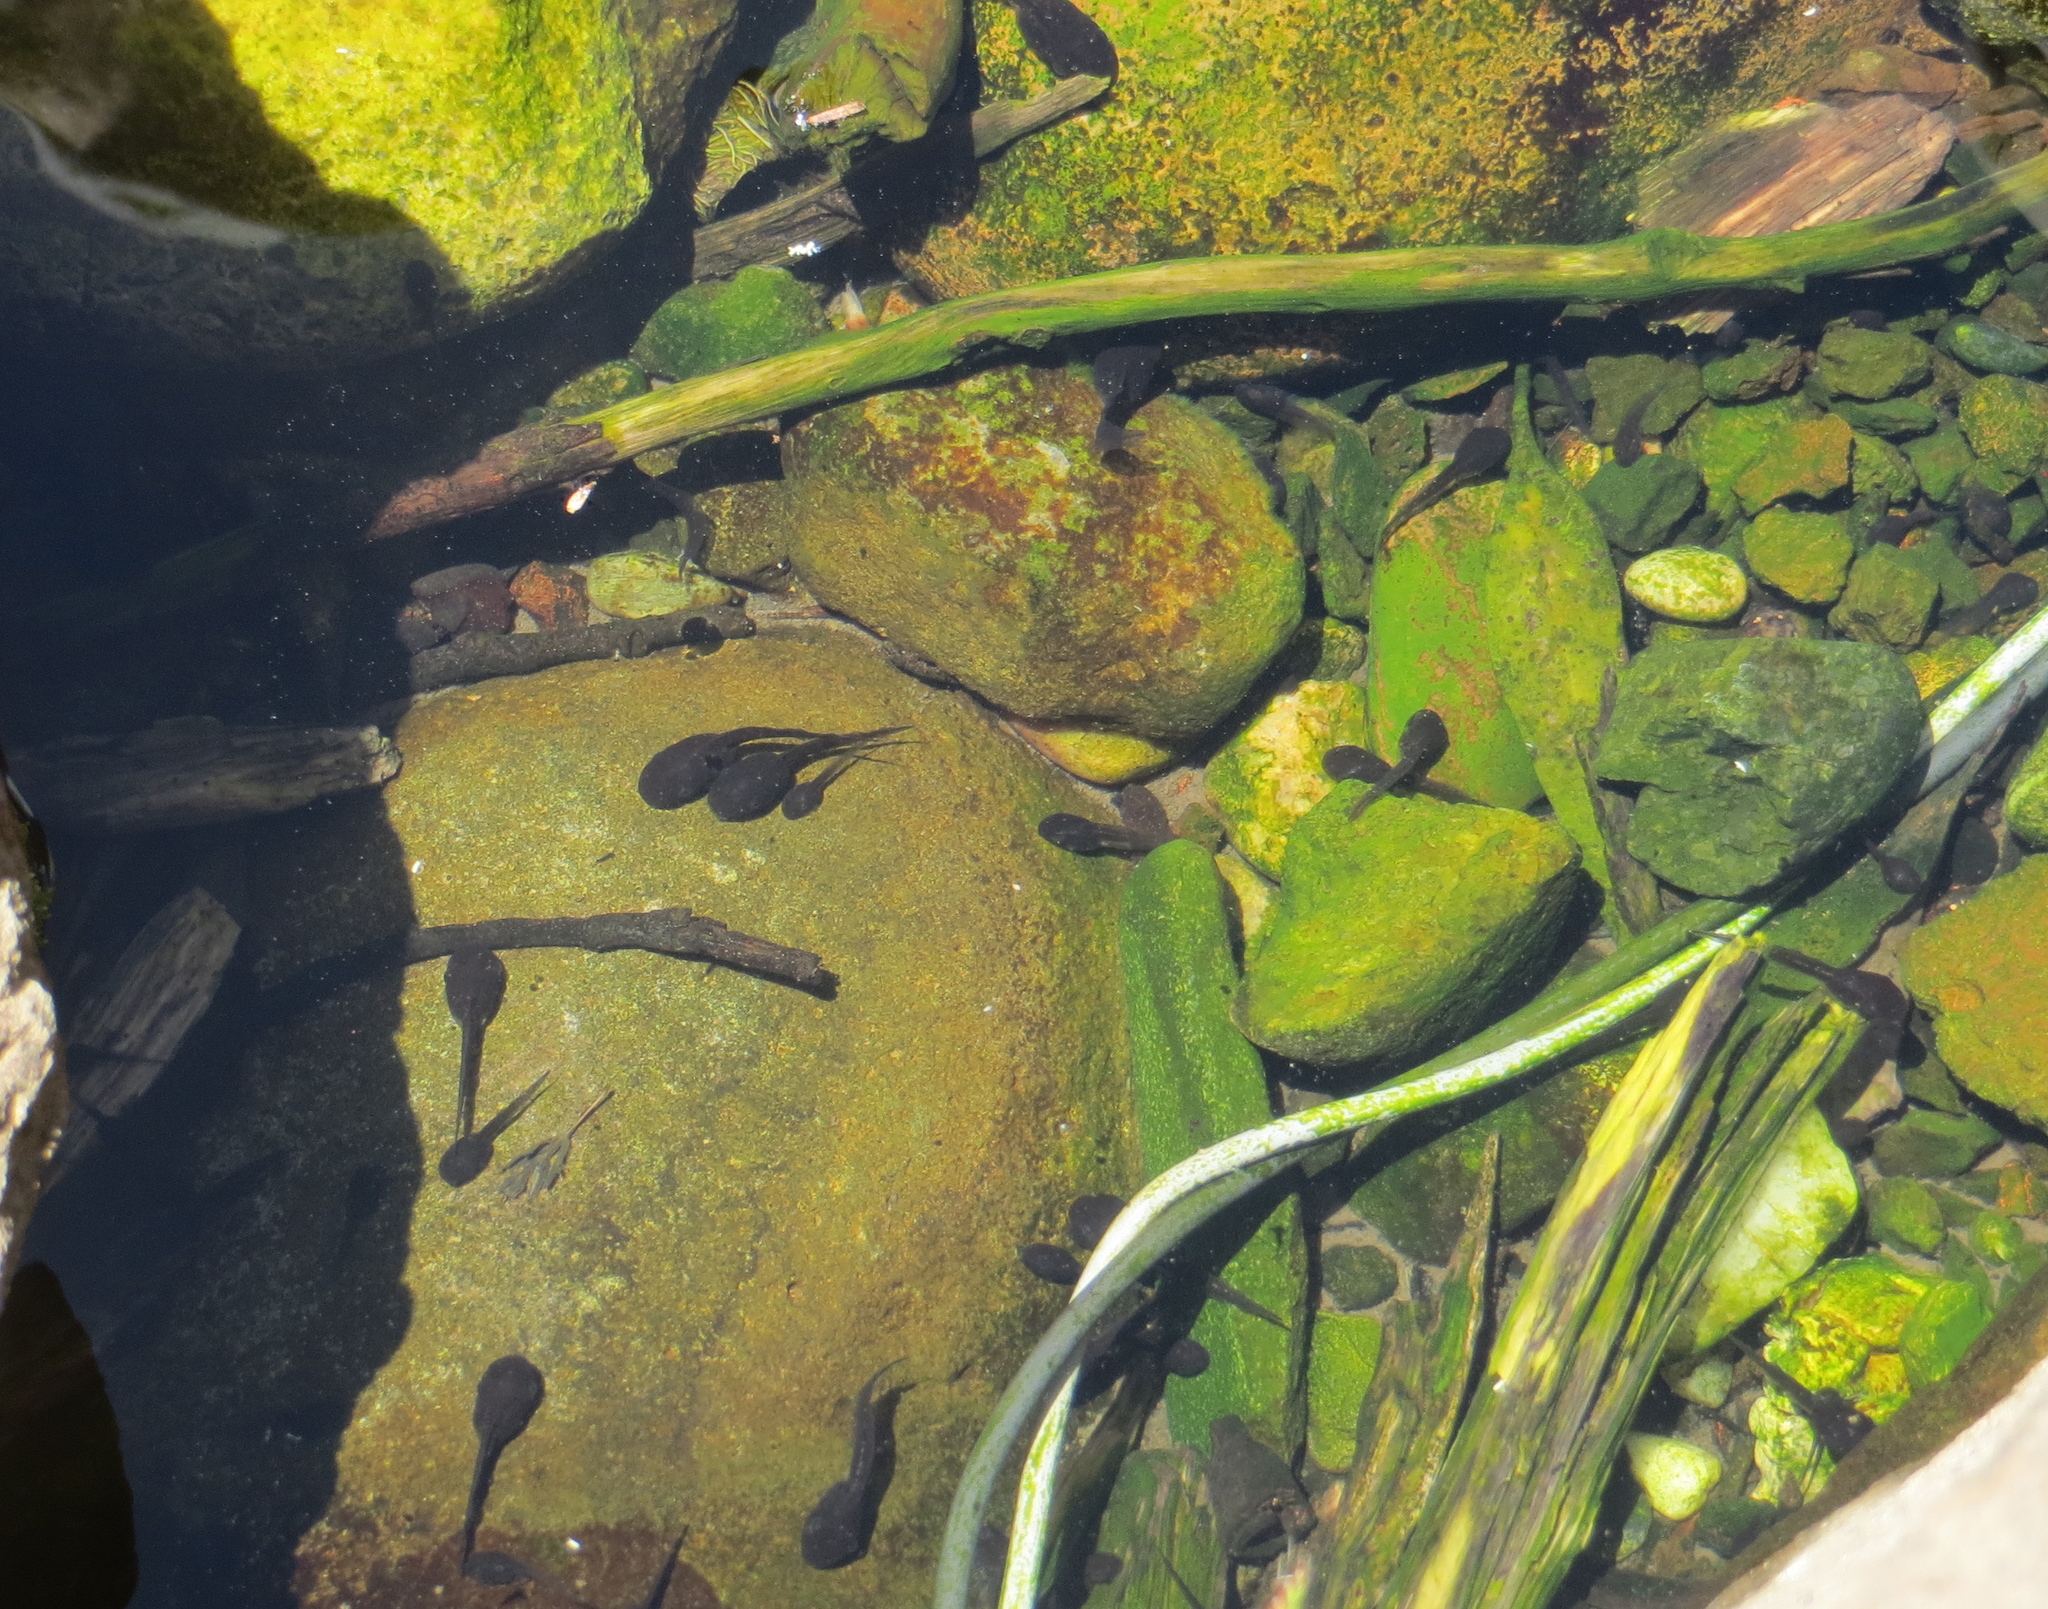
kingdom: Animalia
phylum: Chordata
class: Amphibia
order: Anura
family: Hylidae
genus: Pseudacris
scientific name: Pseudacris regilla
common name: Pacific chorus frog
